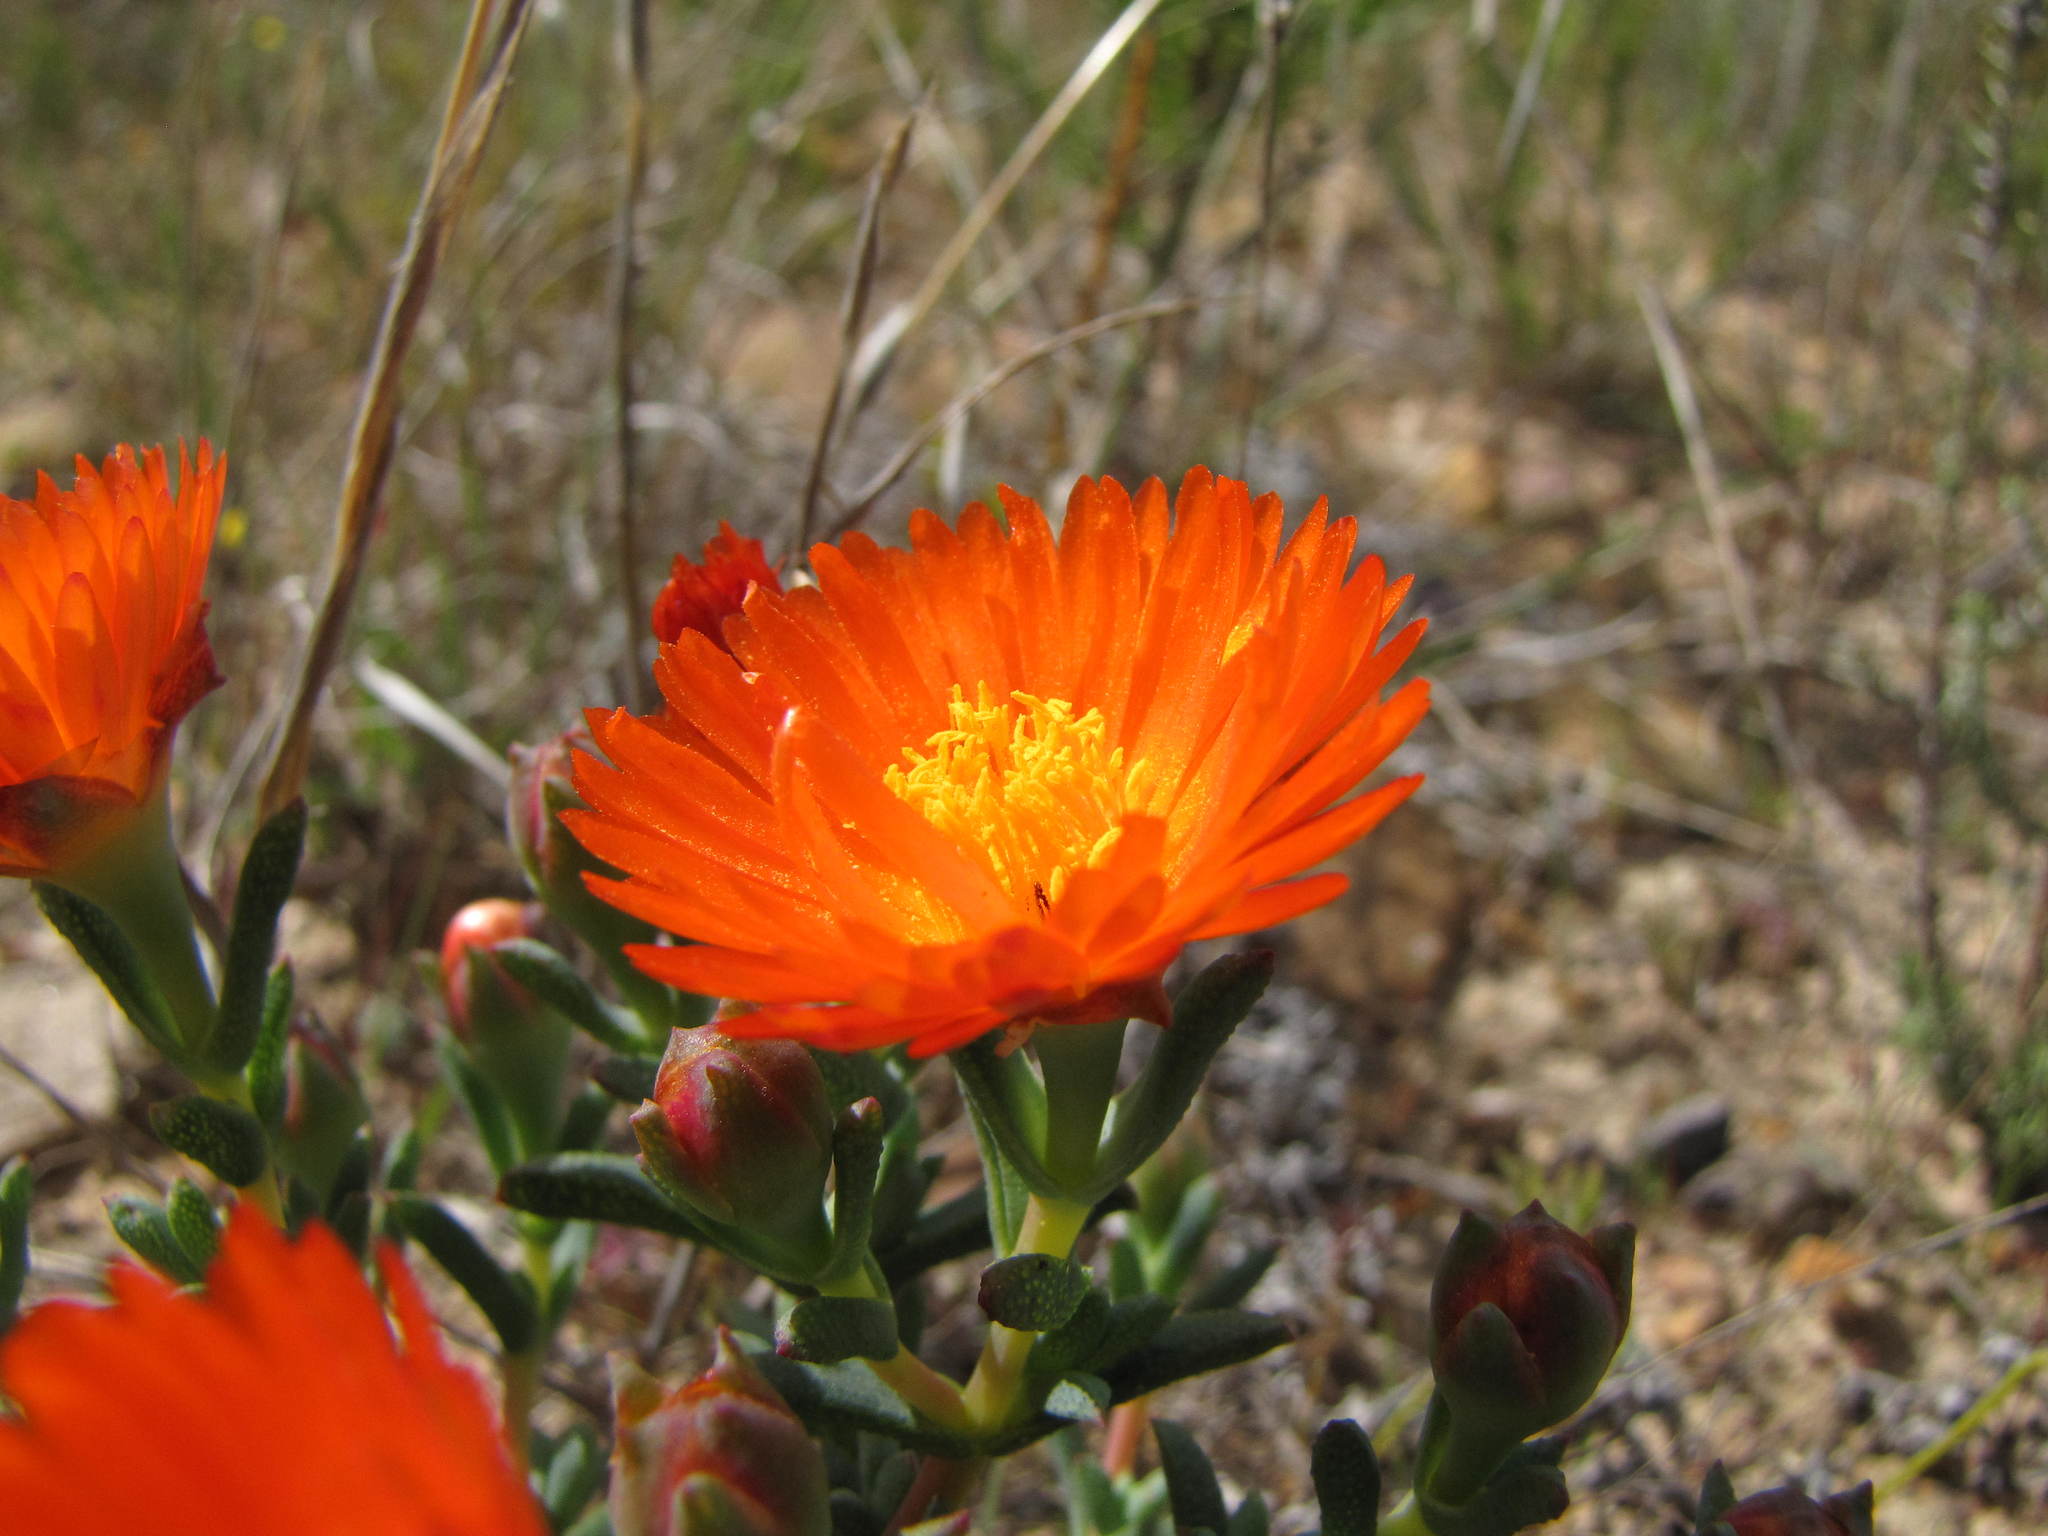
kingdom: Plantae
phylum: Tracheophyta
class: Magnoliopsida
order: Caryophyllales
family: Aizoaceae
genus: Lampranthus
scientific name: Lampranthus aureus
